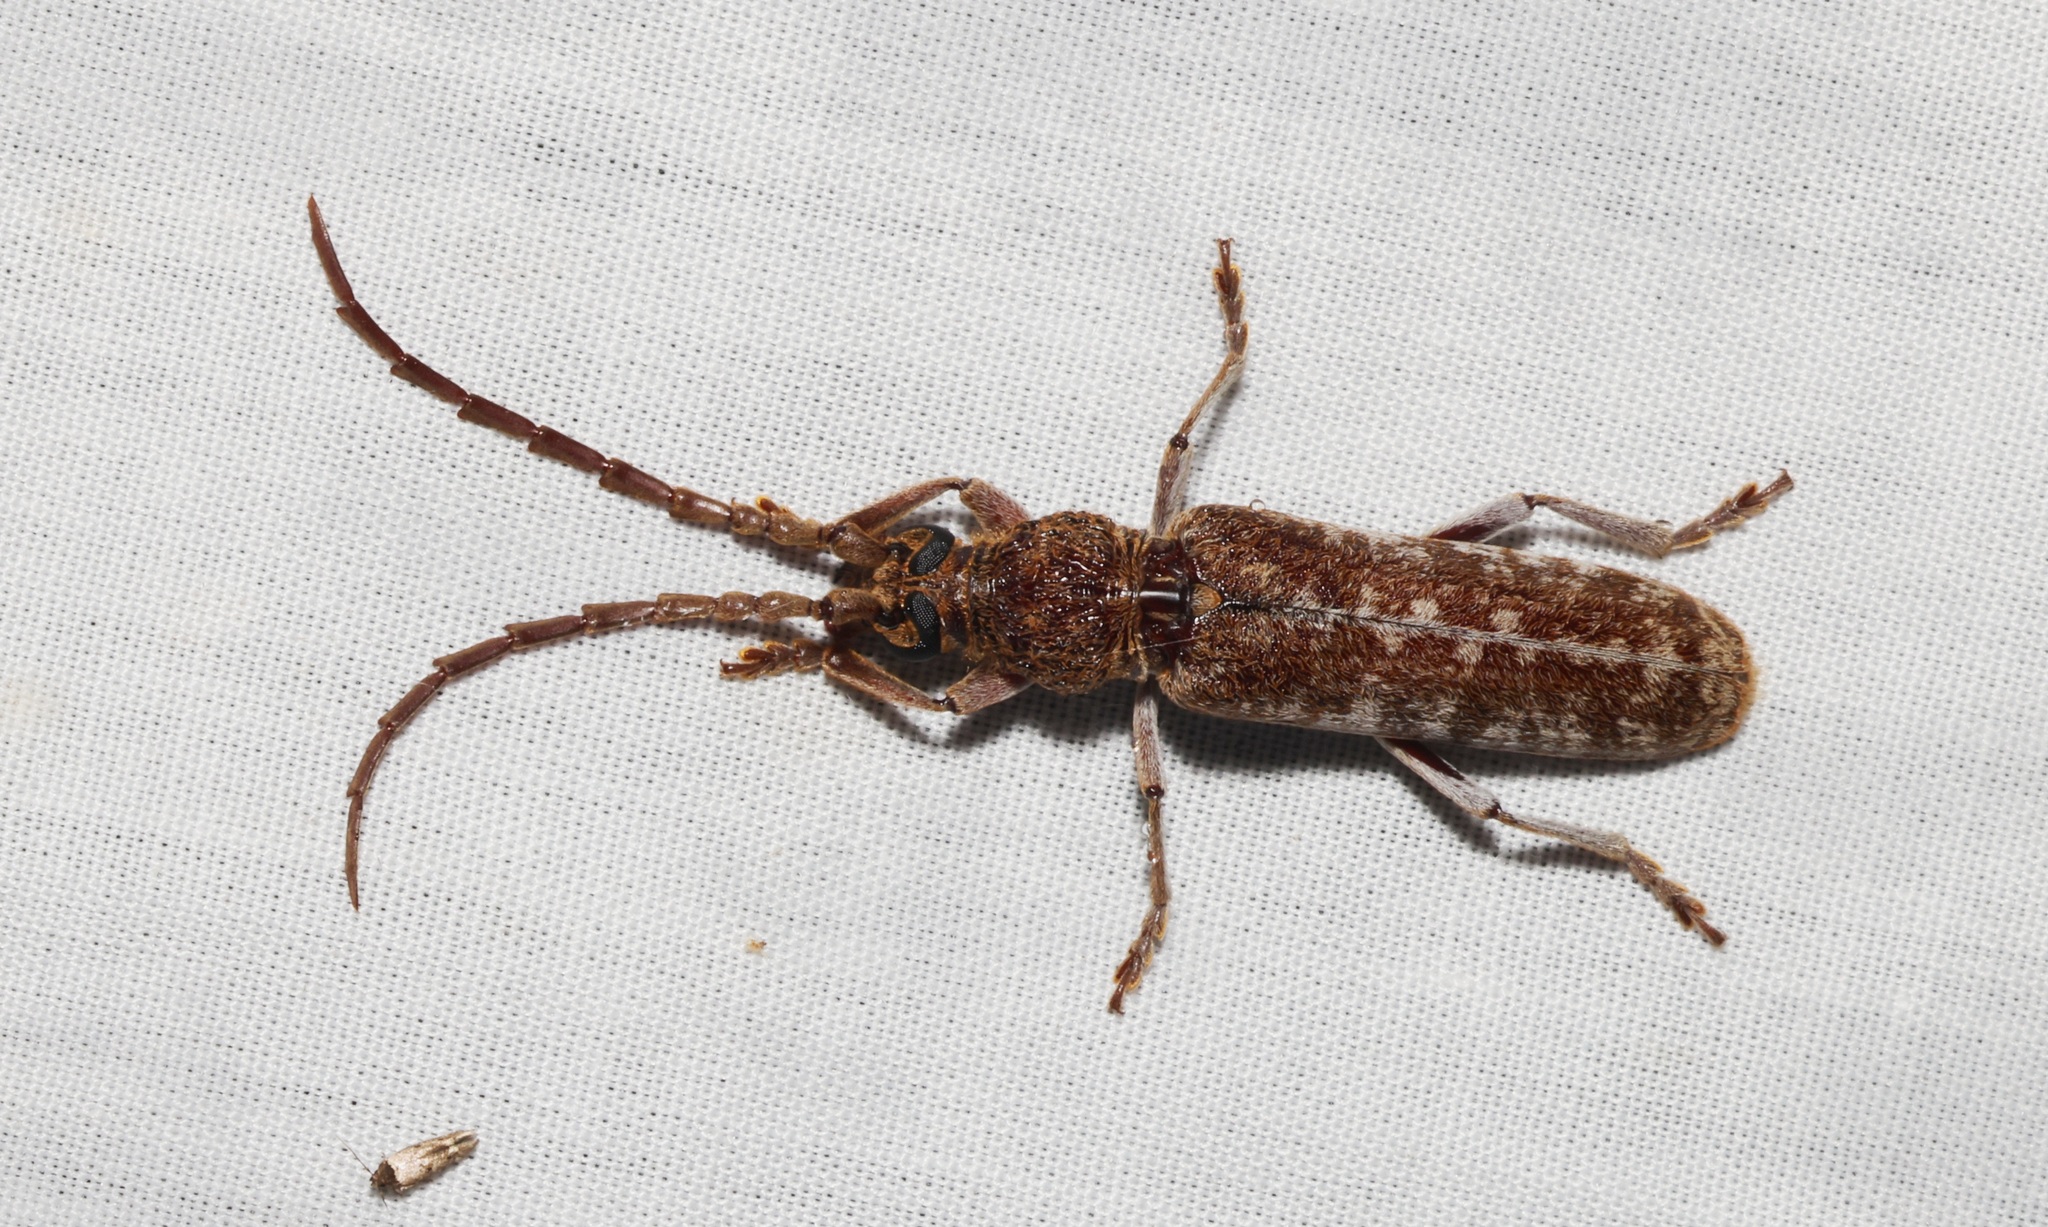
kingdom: Animalia
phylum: Arthropoda
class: Insecta
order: Coleoptera
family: Cerambycidae
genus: Rhytidodera
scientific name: Rhytidodera integra
